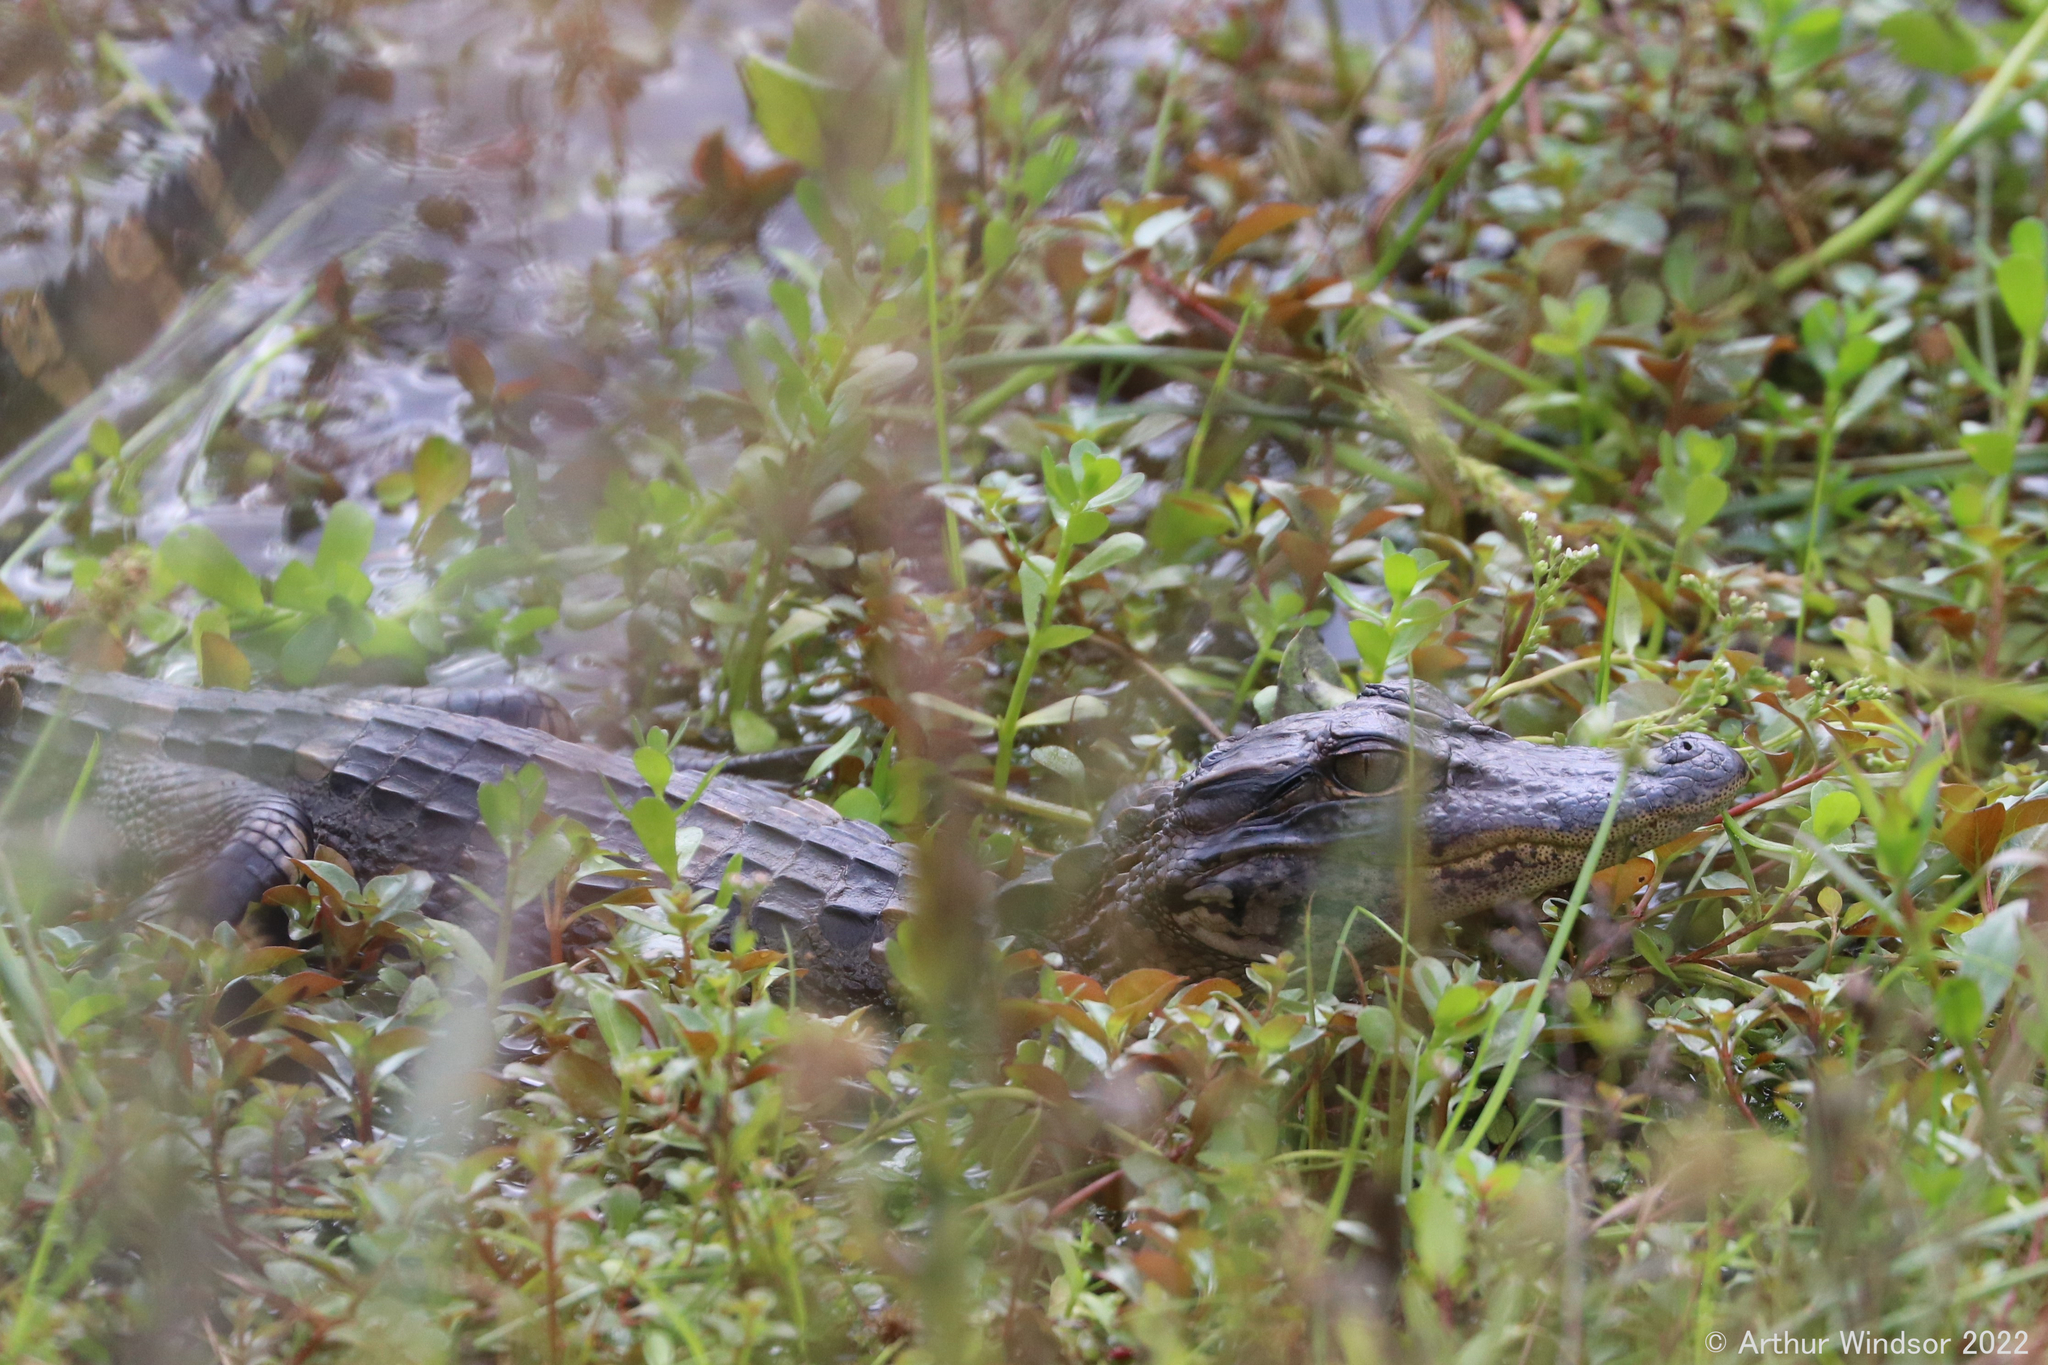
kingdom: Animalia
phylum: Chordata
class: Crocodylia
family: Alligatoridae
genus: Alligator
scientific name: Alligator mississippiensis
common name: American alligator
